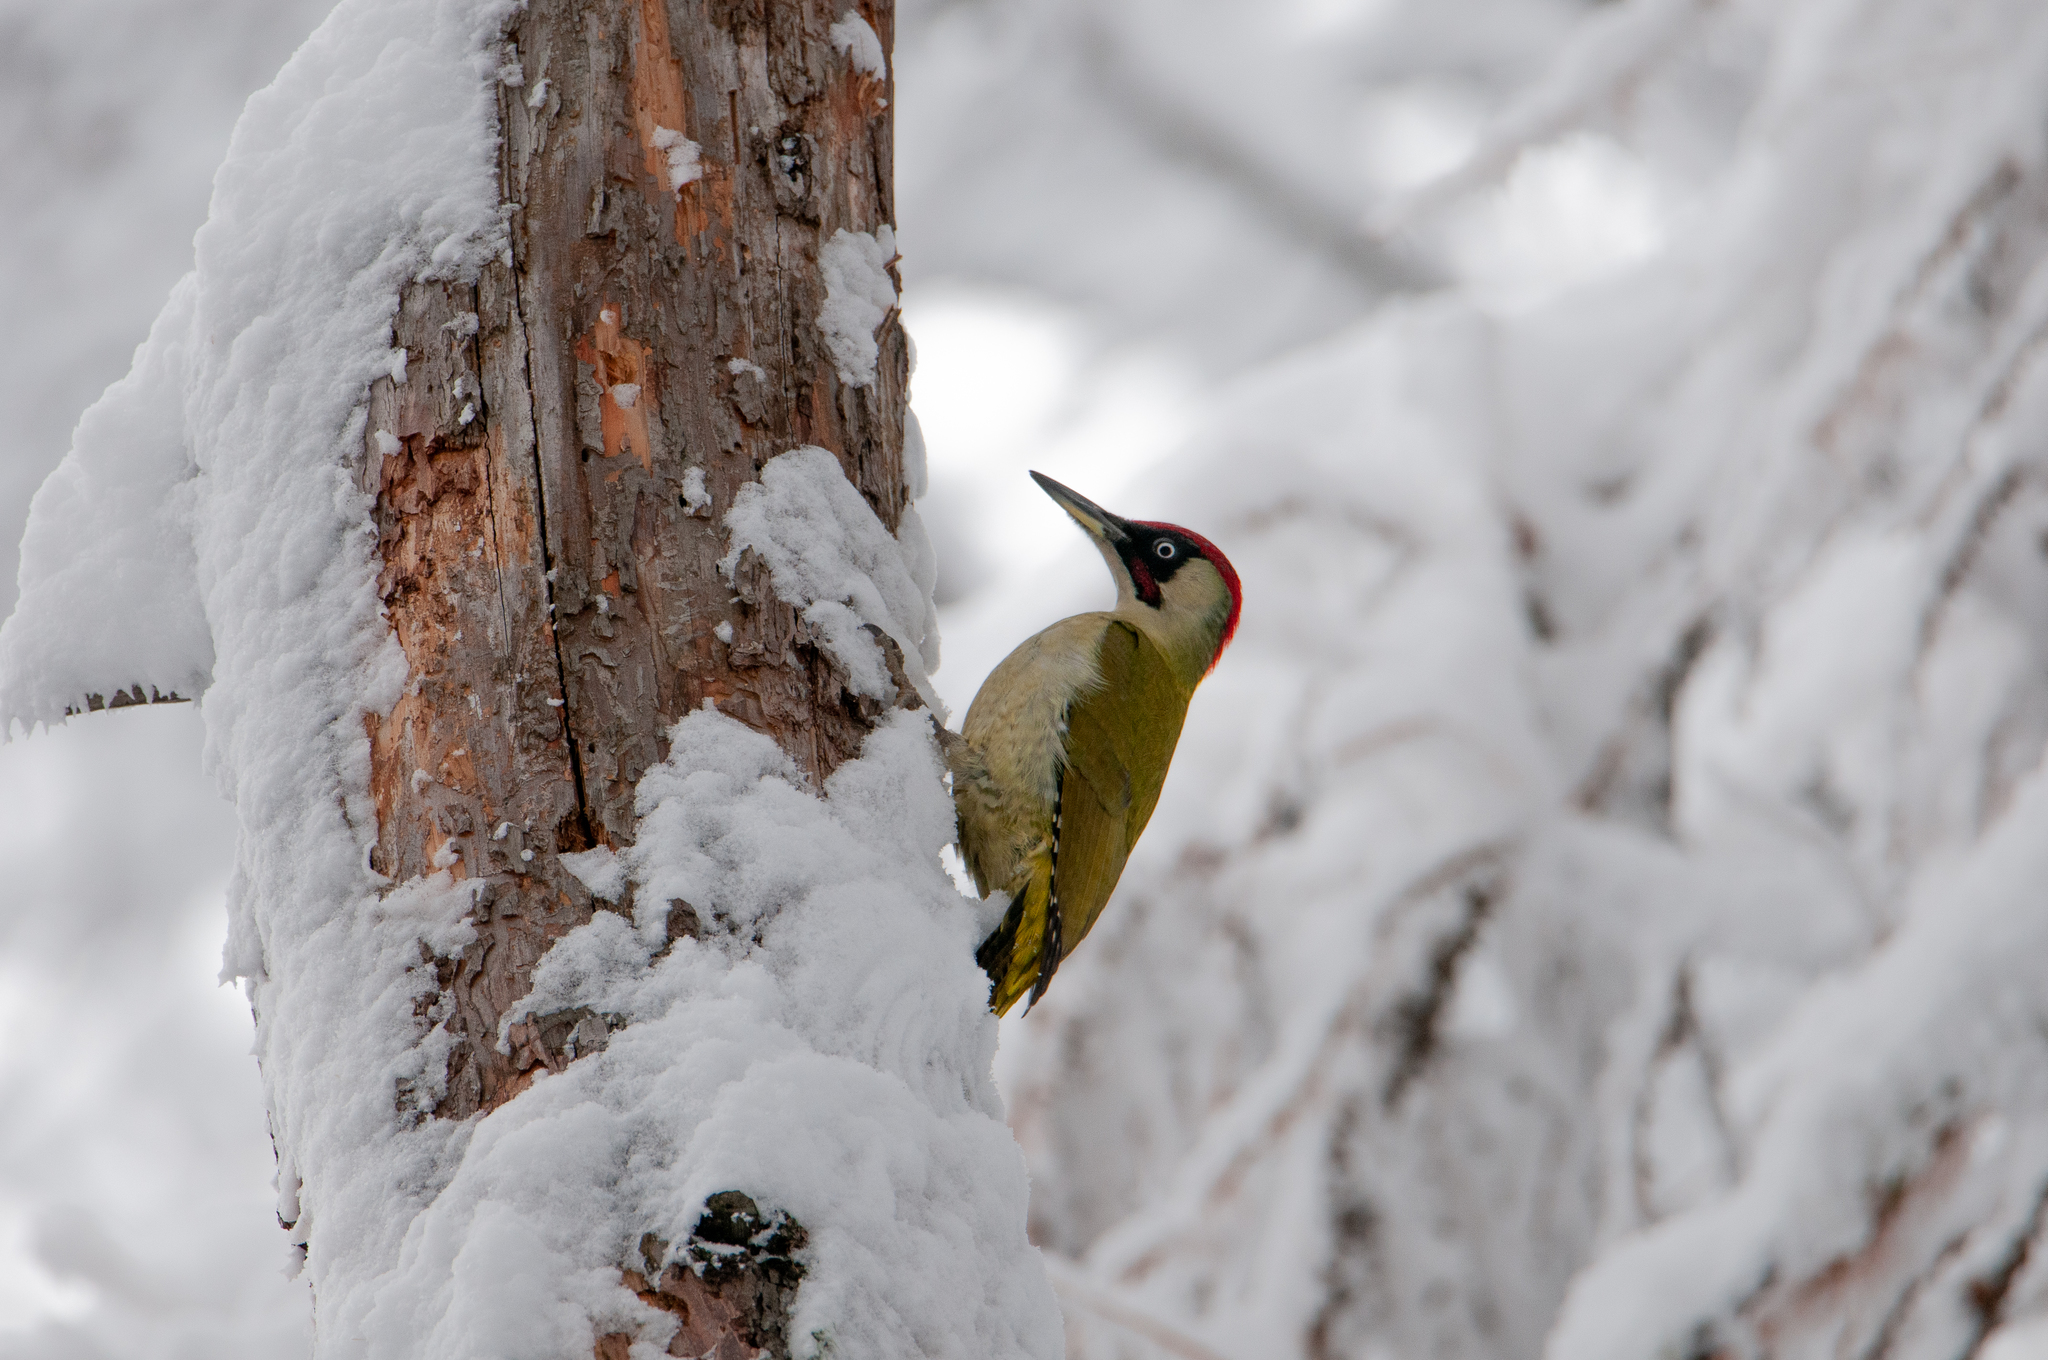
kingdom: Animalia
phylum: Chordata
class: Aves
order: Piciformes
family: Picidae
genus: Picus
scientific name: Picus viridis
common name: European green woodpecker
